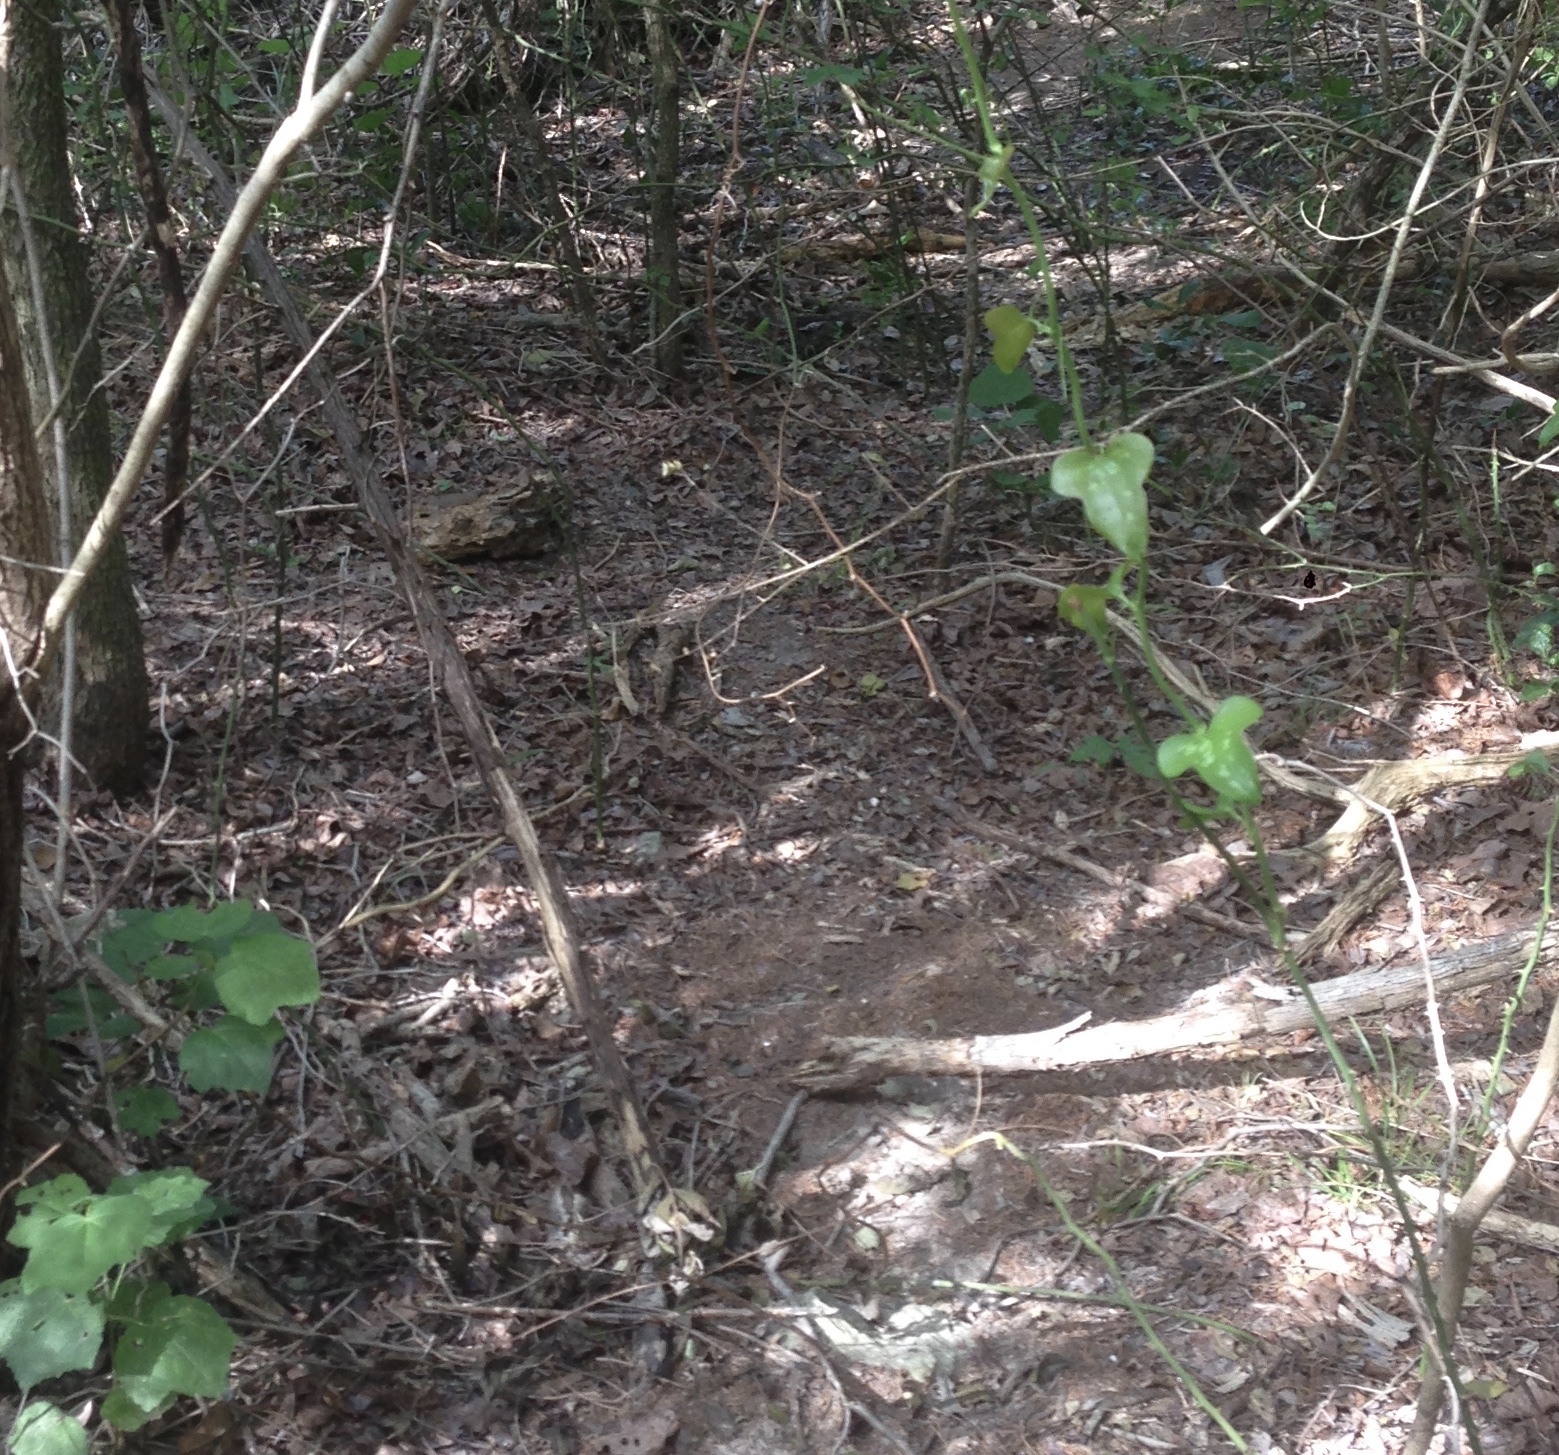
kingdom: Plantae
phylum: Tracheophyta
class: Liliopsida
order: Liliales
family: Smilacaceae
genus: Smilax
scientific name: Smilax bona-nox
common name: Catbrier
